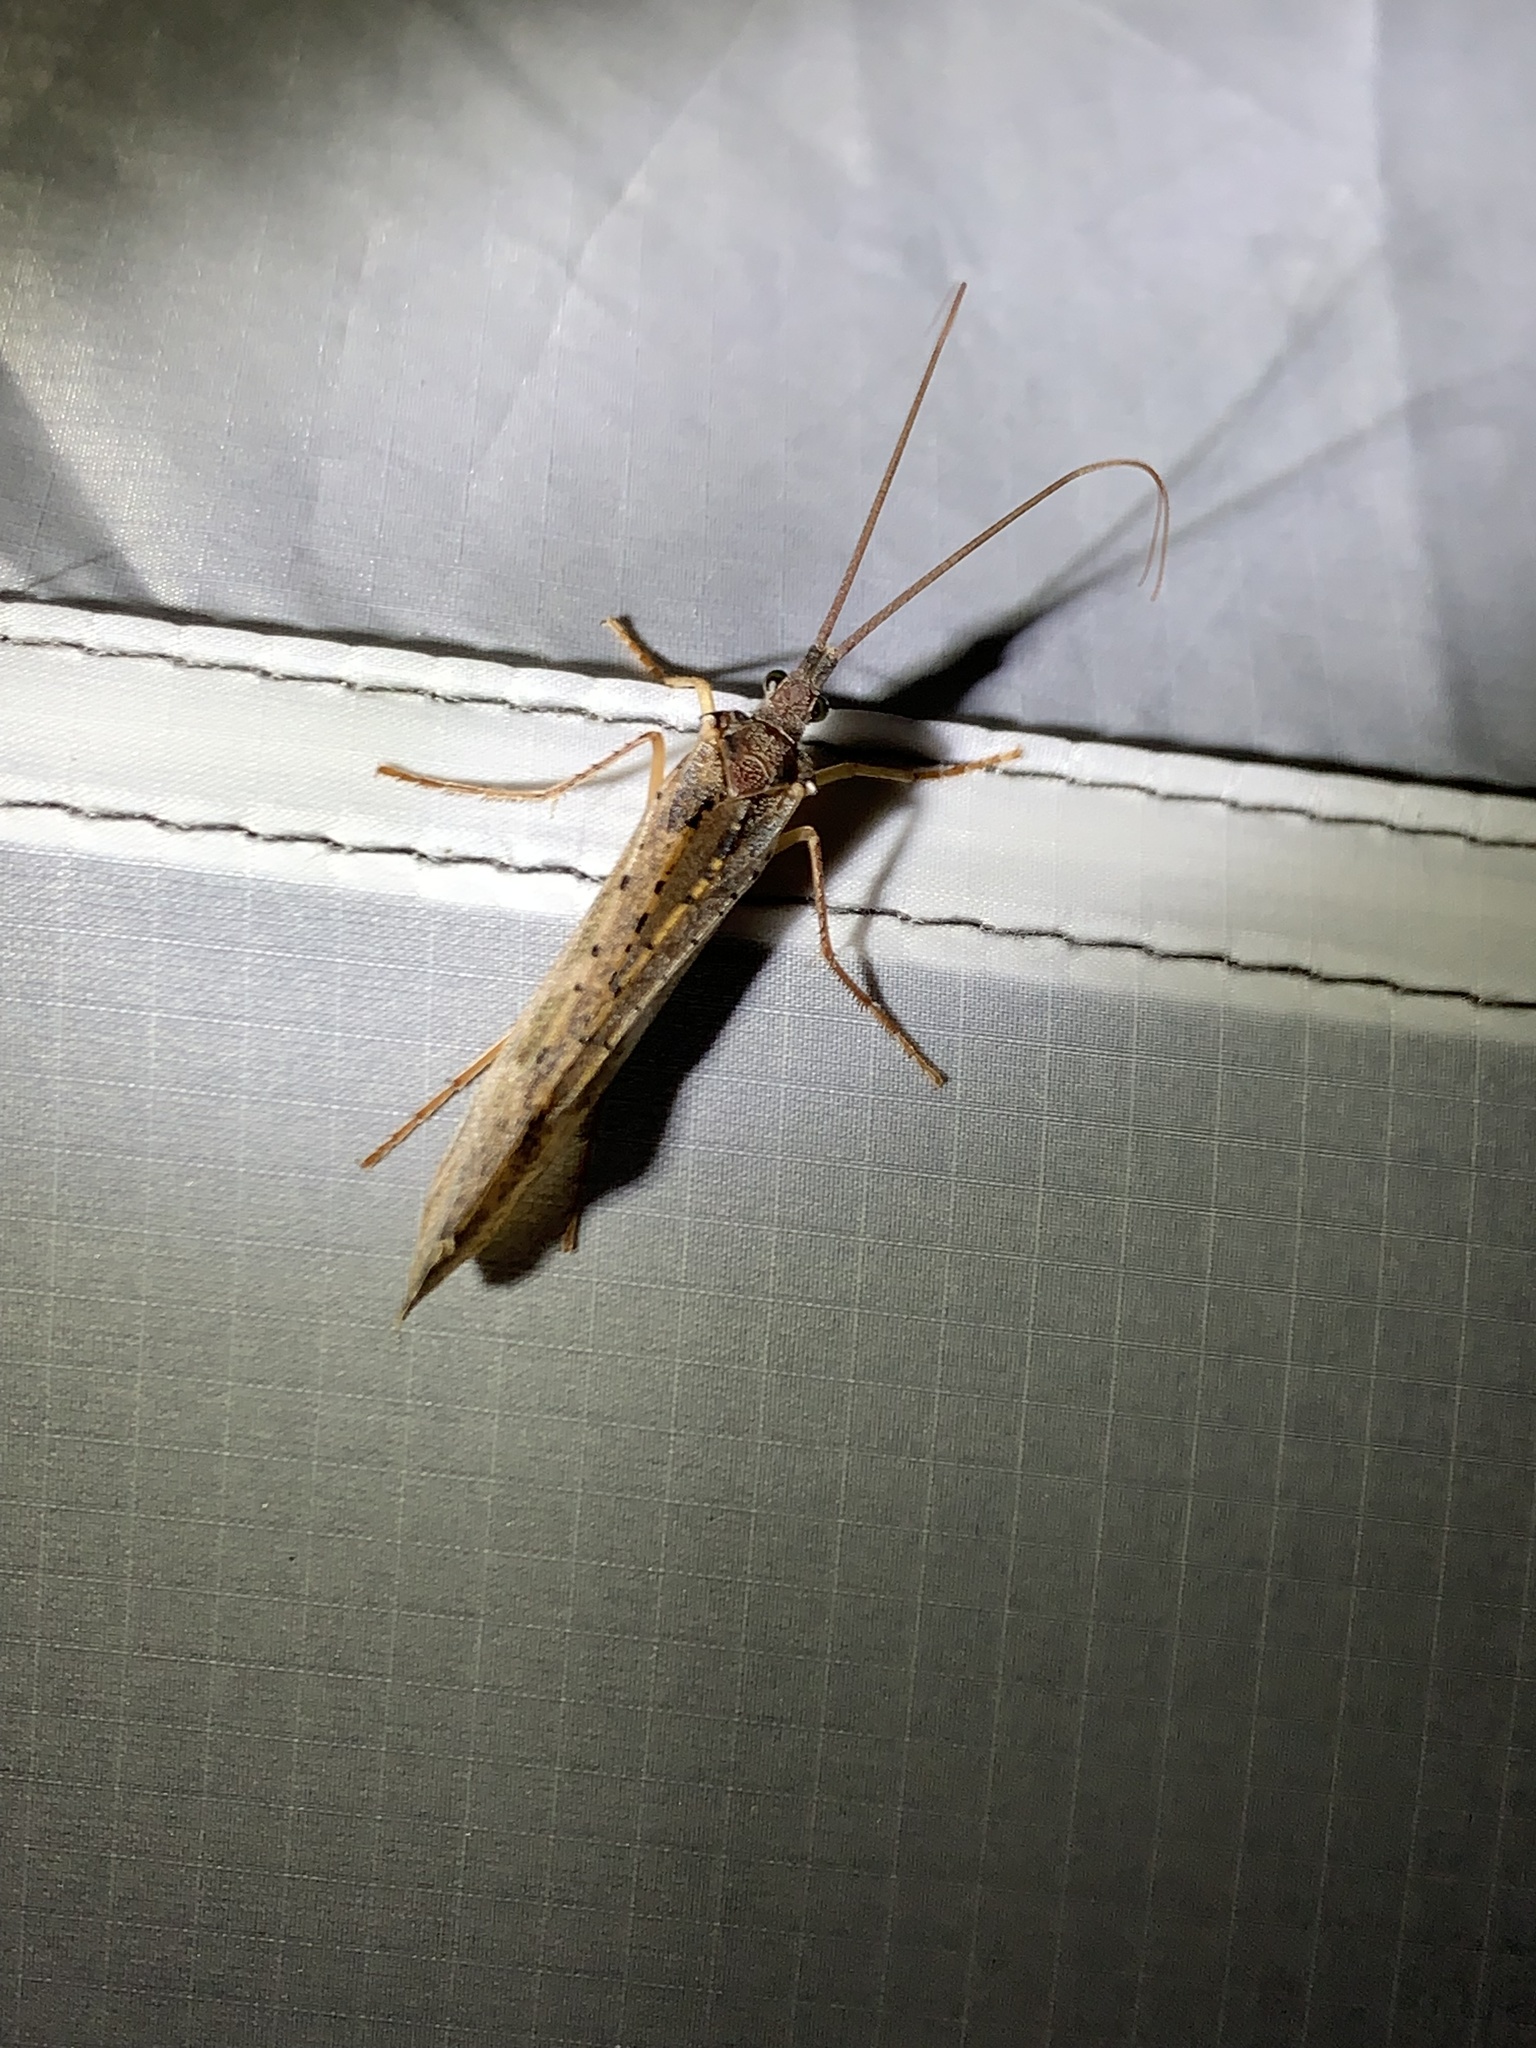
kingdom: Animalia
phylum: Arthropoda
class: Insecta
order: Trichoptera
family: Limnephilidae
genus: Nemotaulius
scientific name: Nemotaulius hostilis
